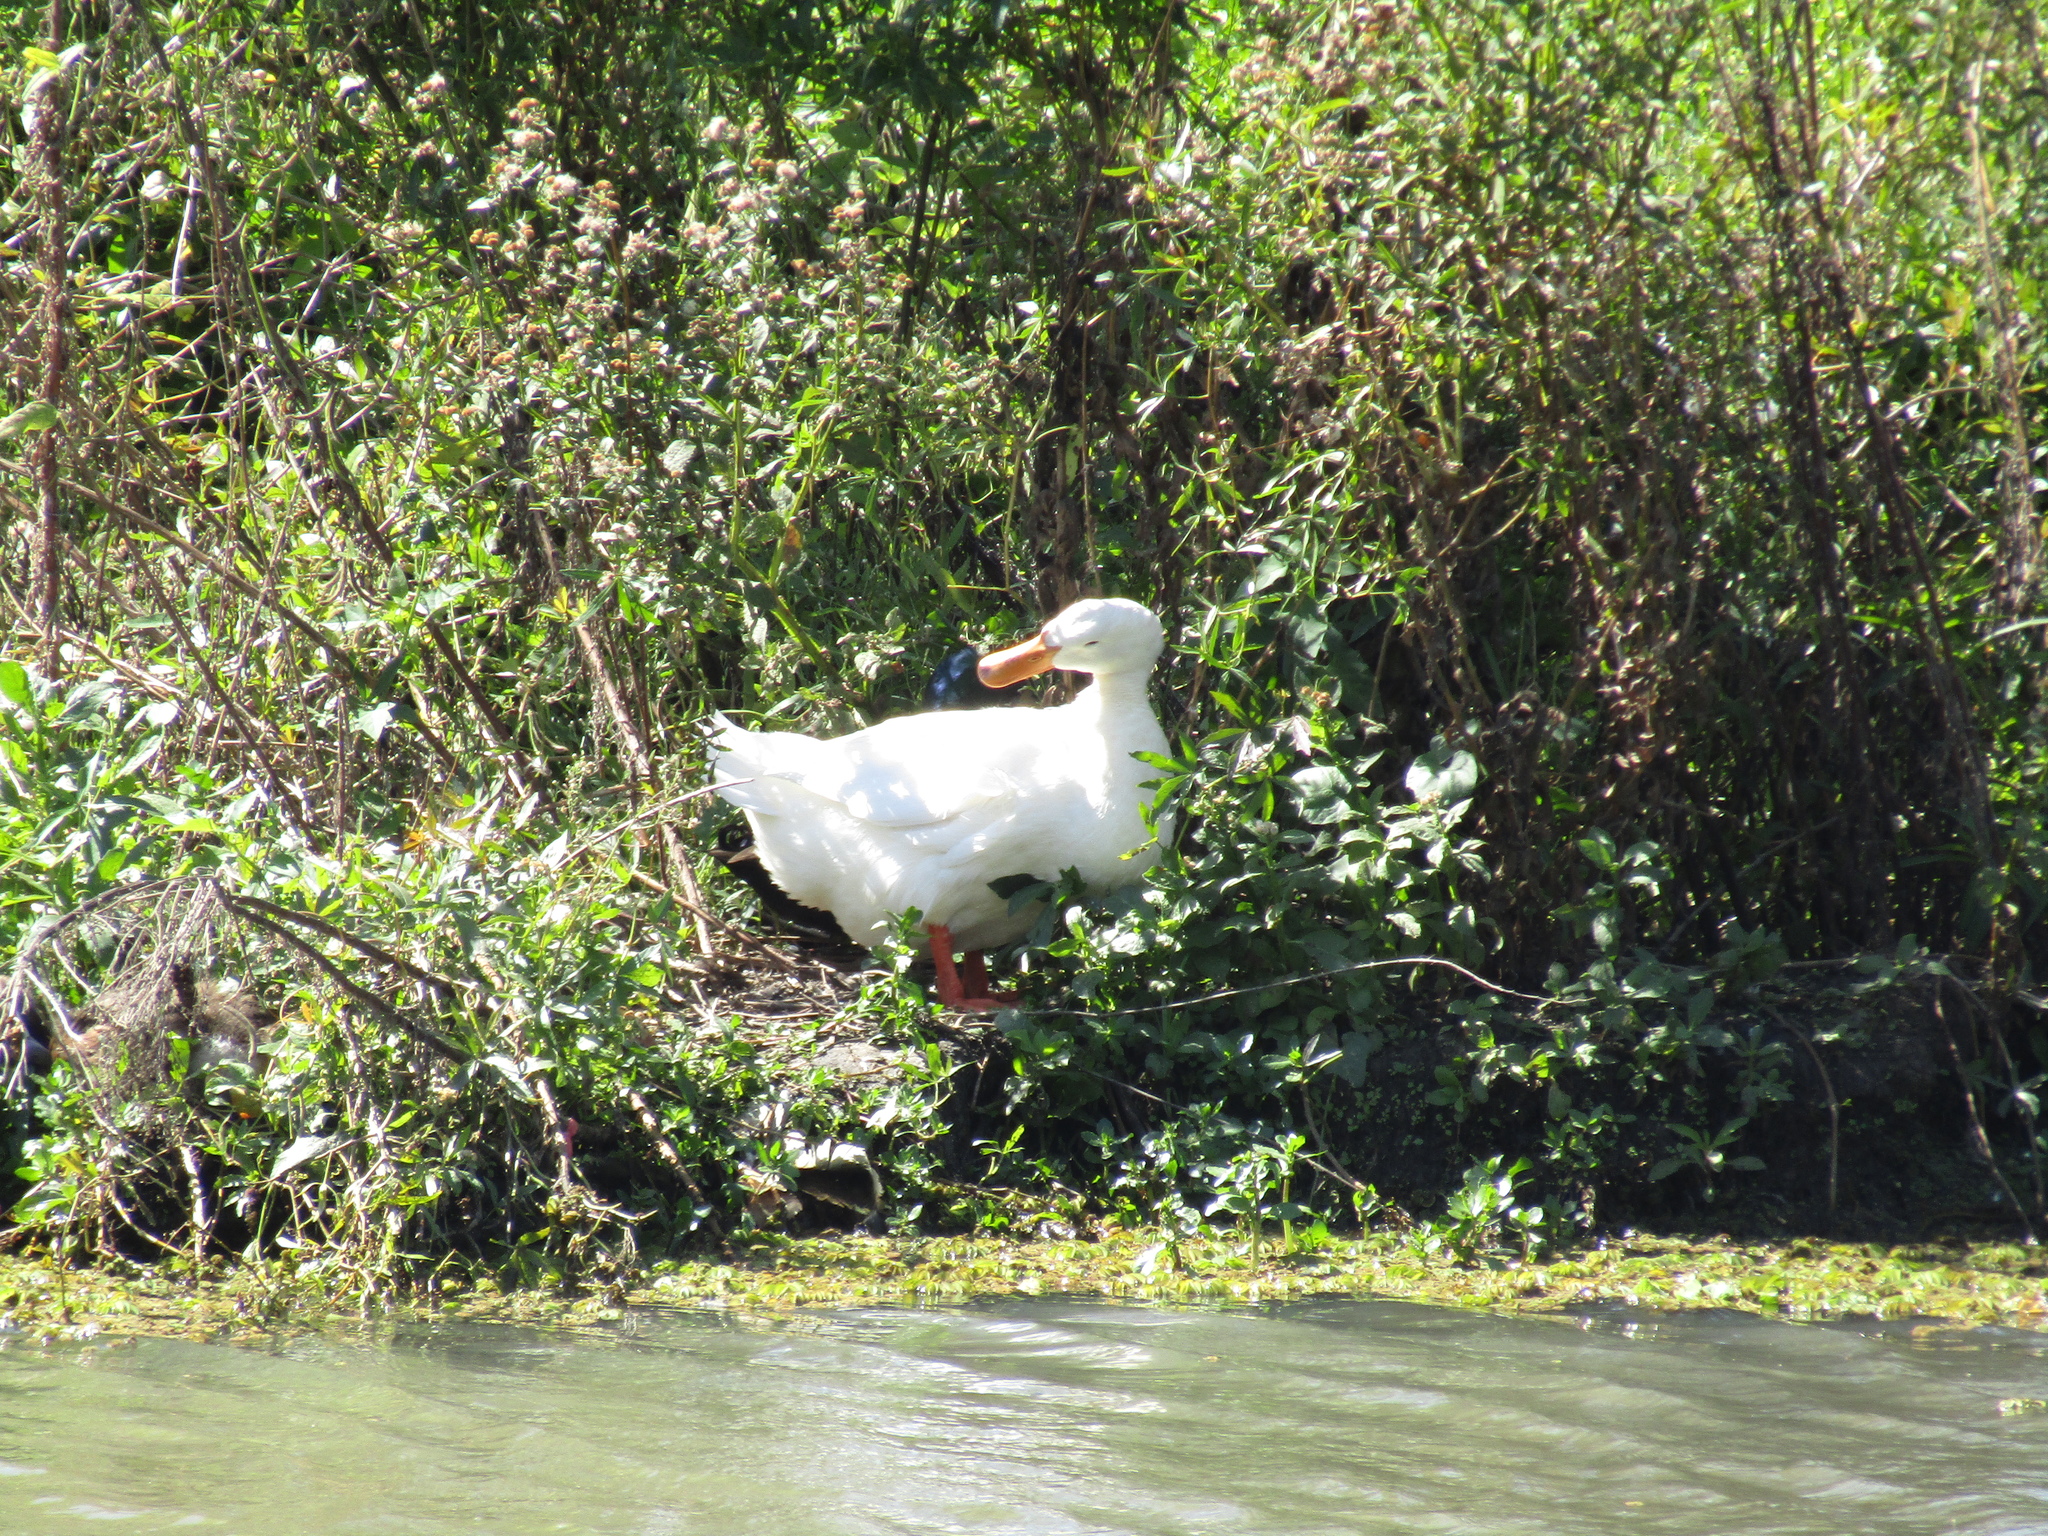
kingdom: Animalia
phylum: Chordata
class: Aves
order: Anseriformes
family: Anatidae
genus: Anas
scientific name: Anas platyrhynchos
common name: Mallard
